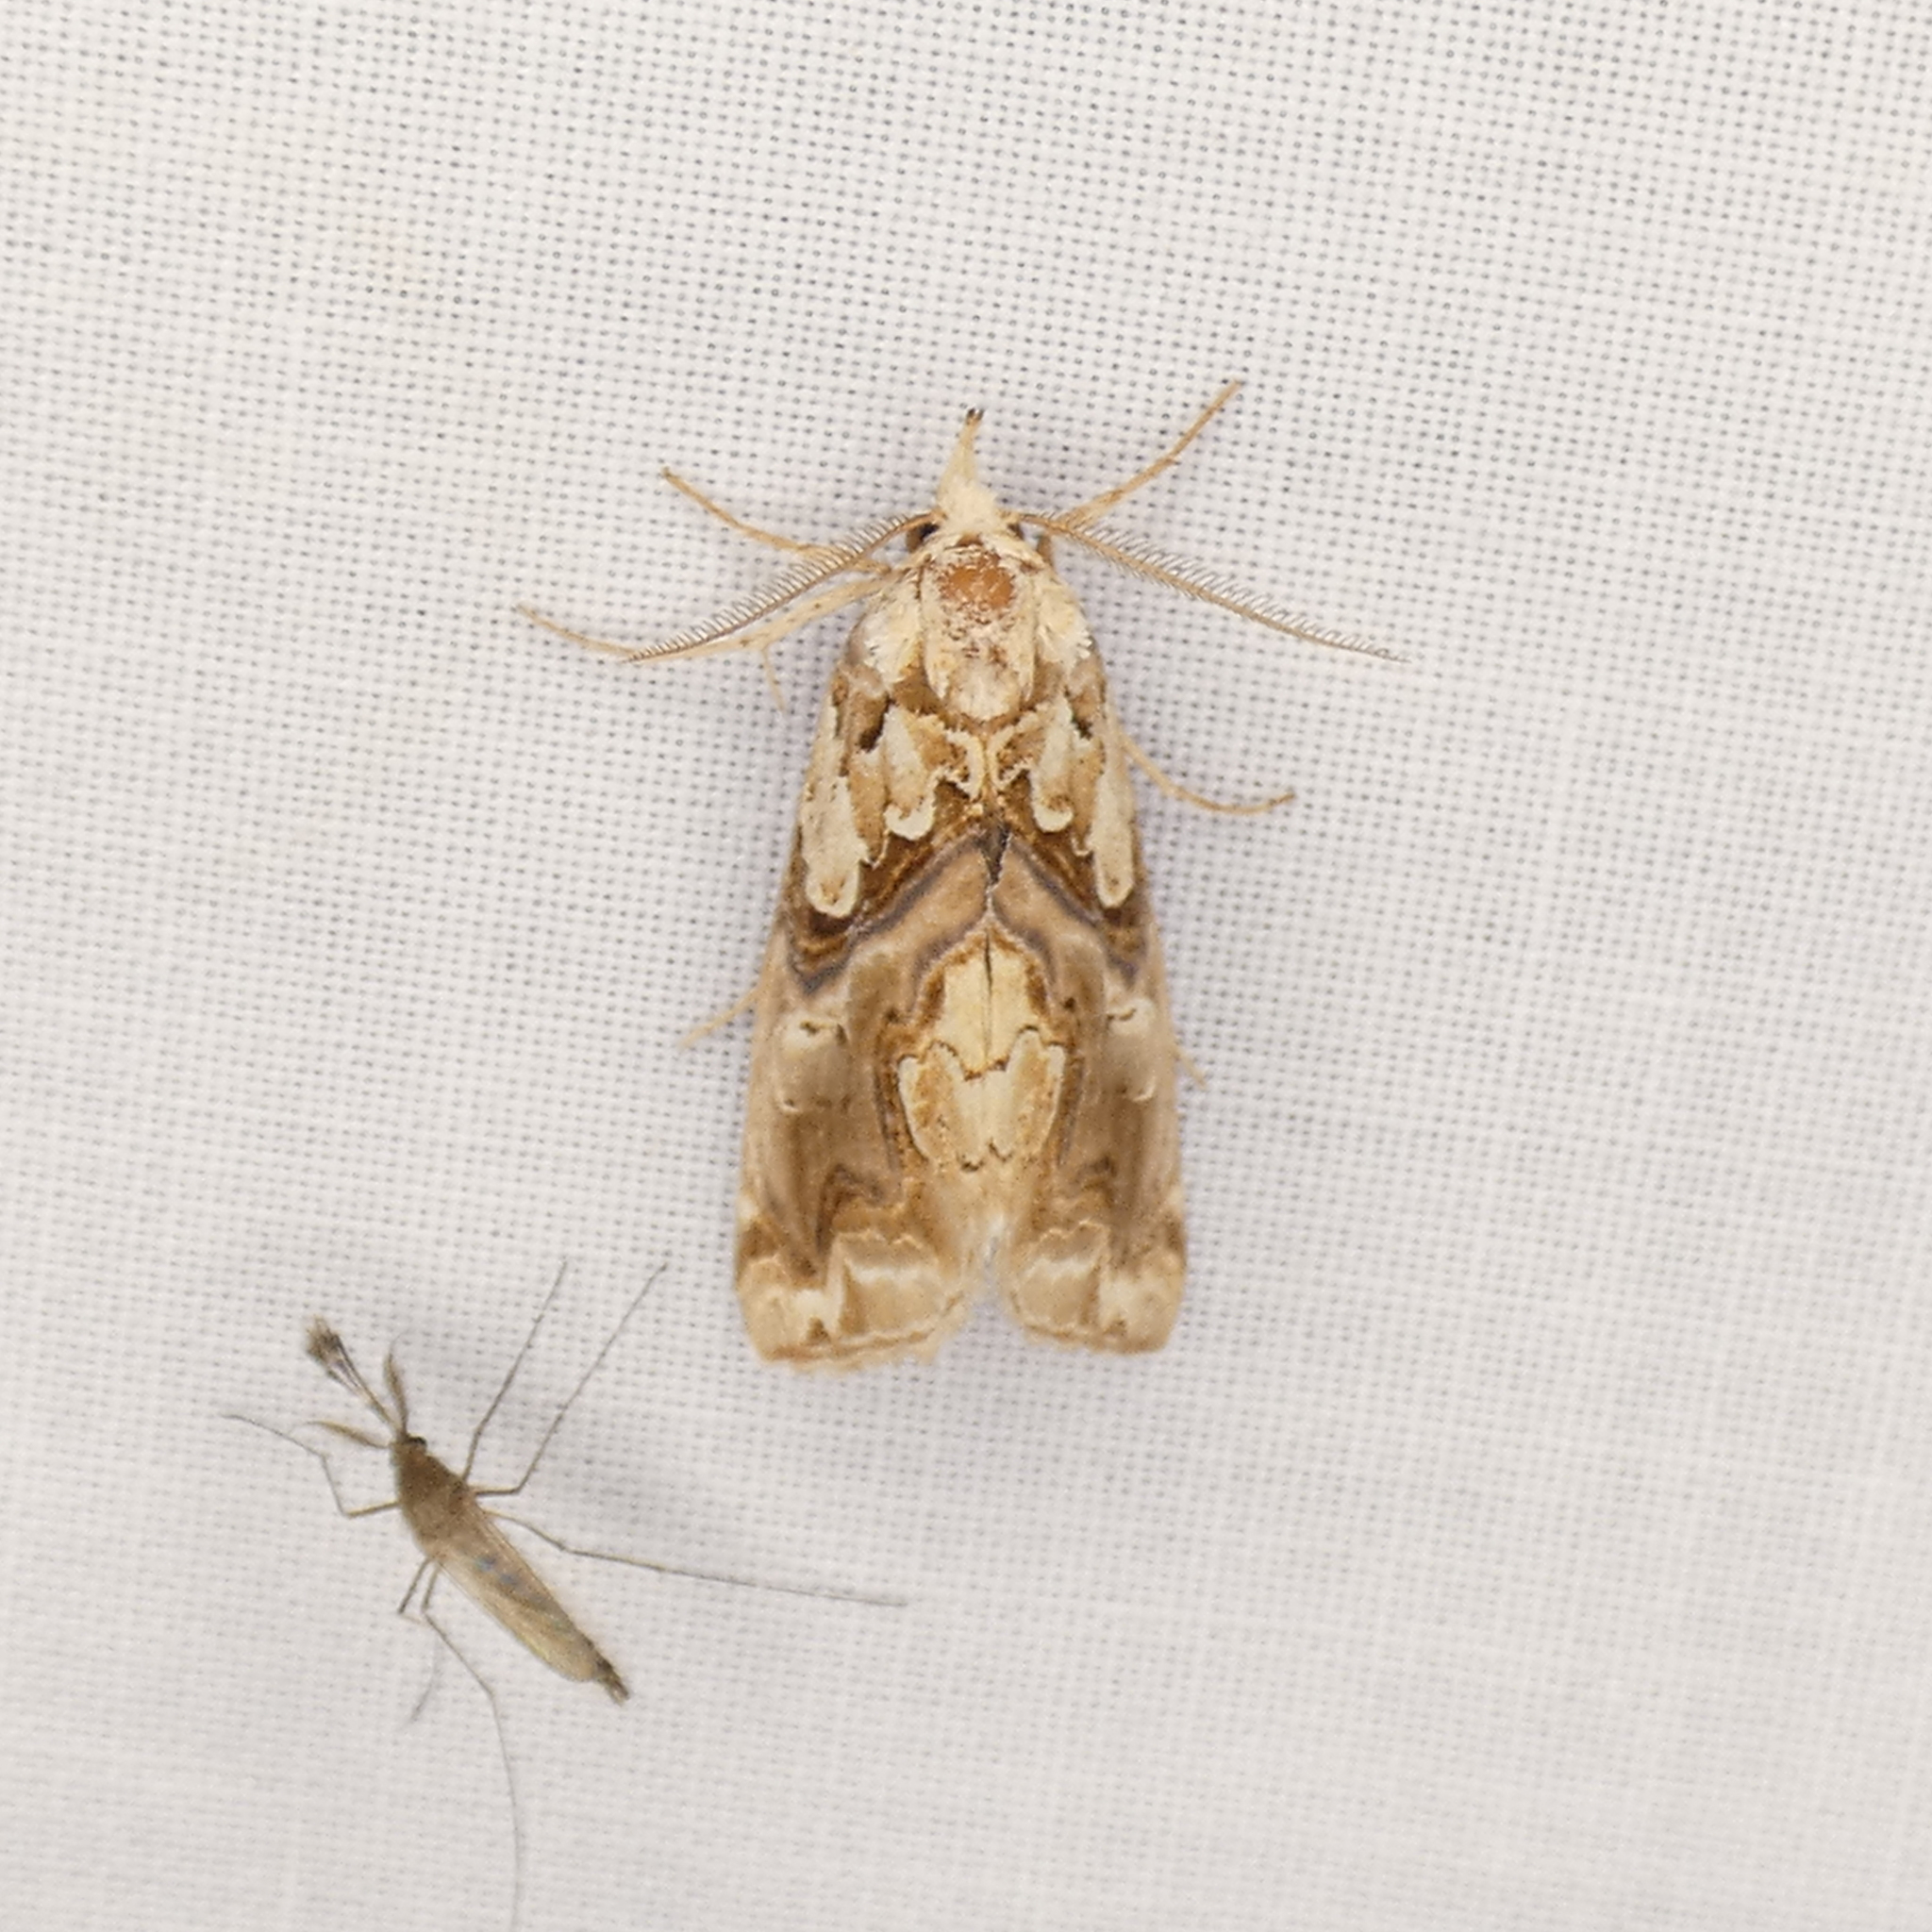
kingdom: Animalia
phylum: Arthropoda
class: Insecta
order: Lepidoptera
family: Erebidae
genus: Plusiodonta
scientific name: Plusiodonta compressipalpis
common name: Moonseed moth
